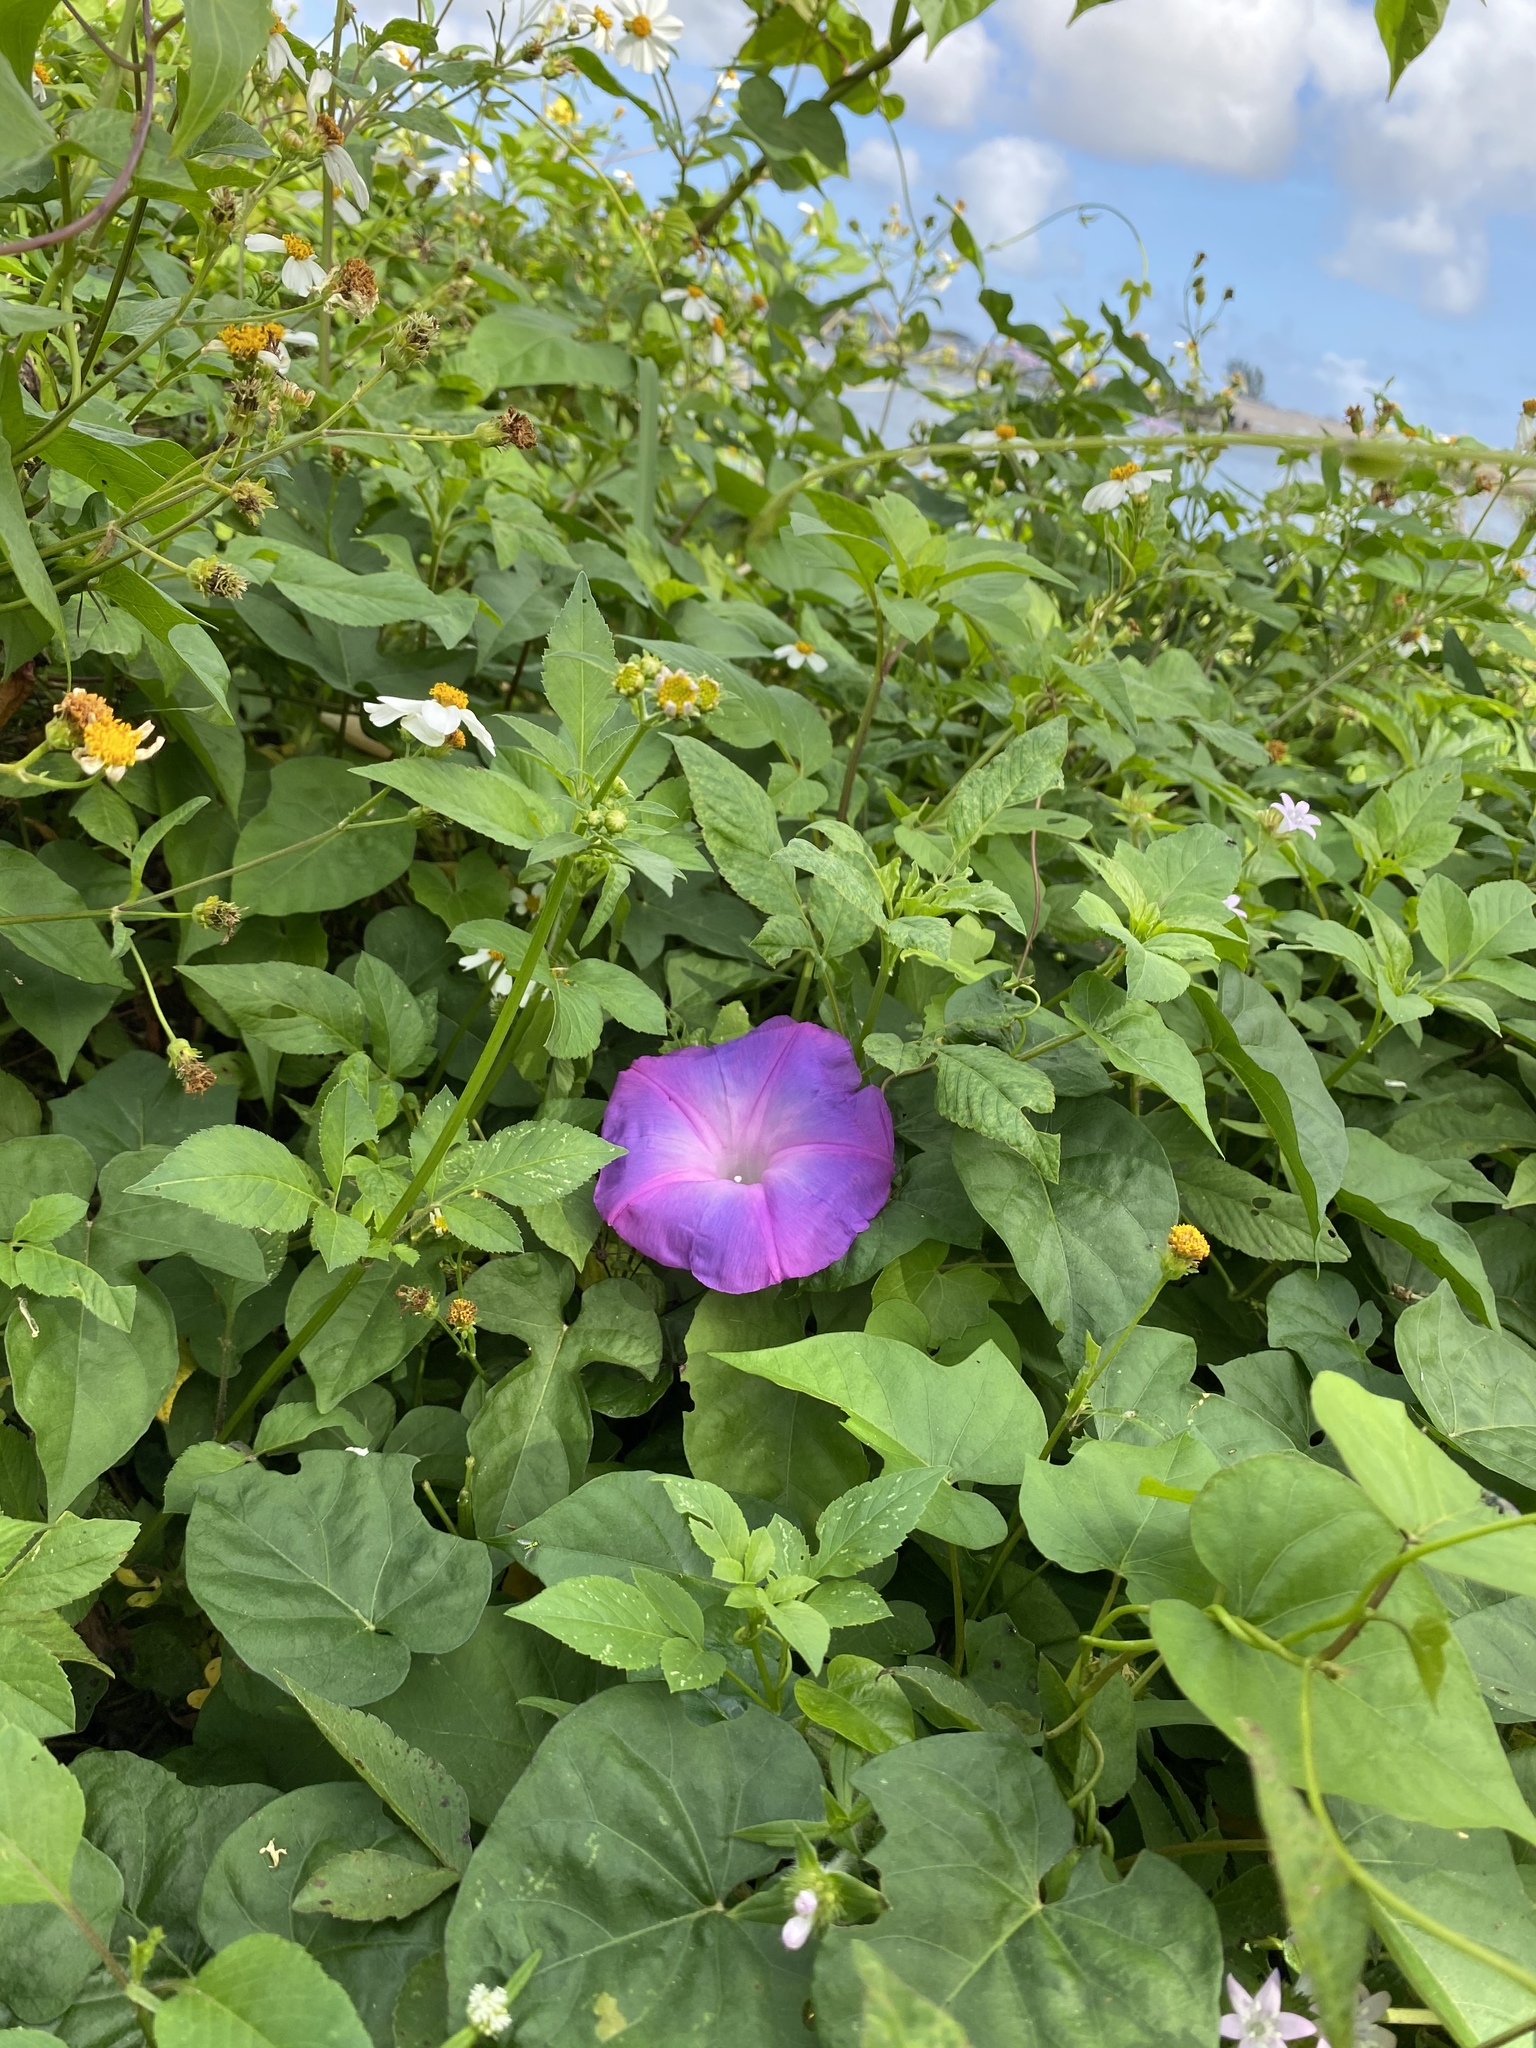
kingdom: Plantae
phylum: Tracheophyta
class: Magnoliopsida
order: Solanales
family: Convolvulaceae
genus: Ipomoea
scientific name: Ipomoea indica
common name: Blue dawnflower
